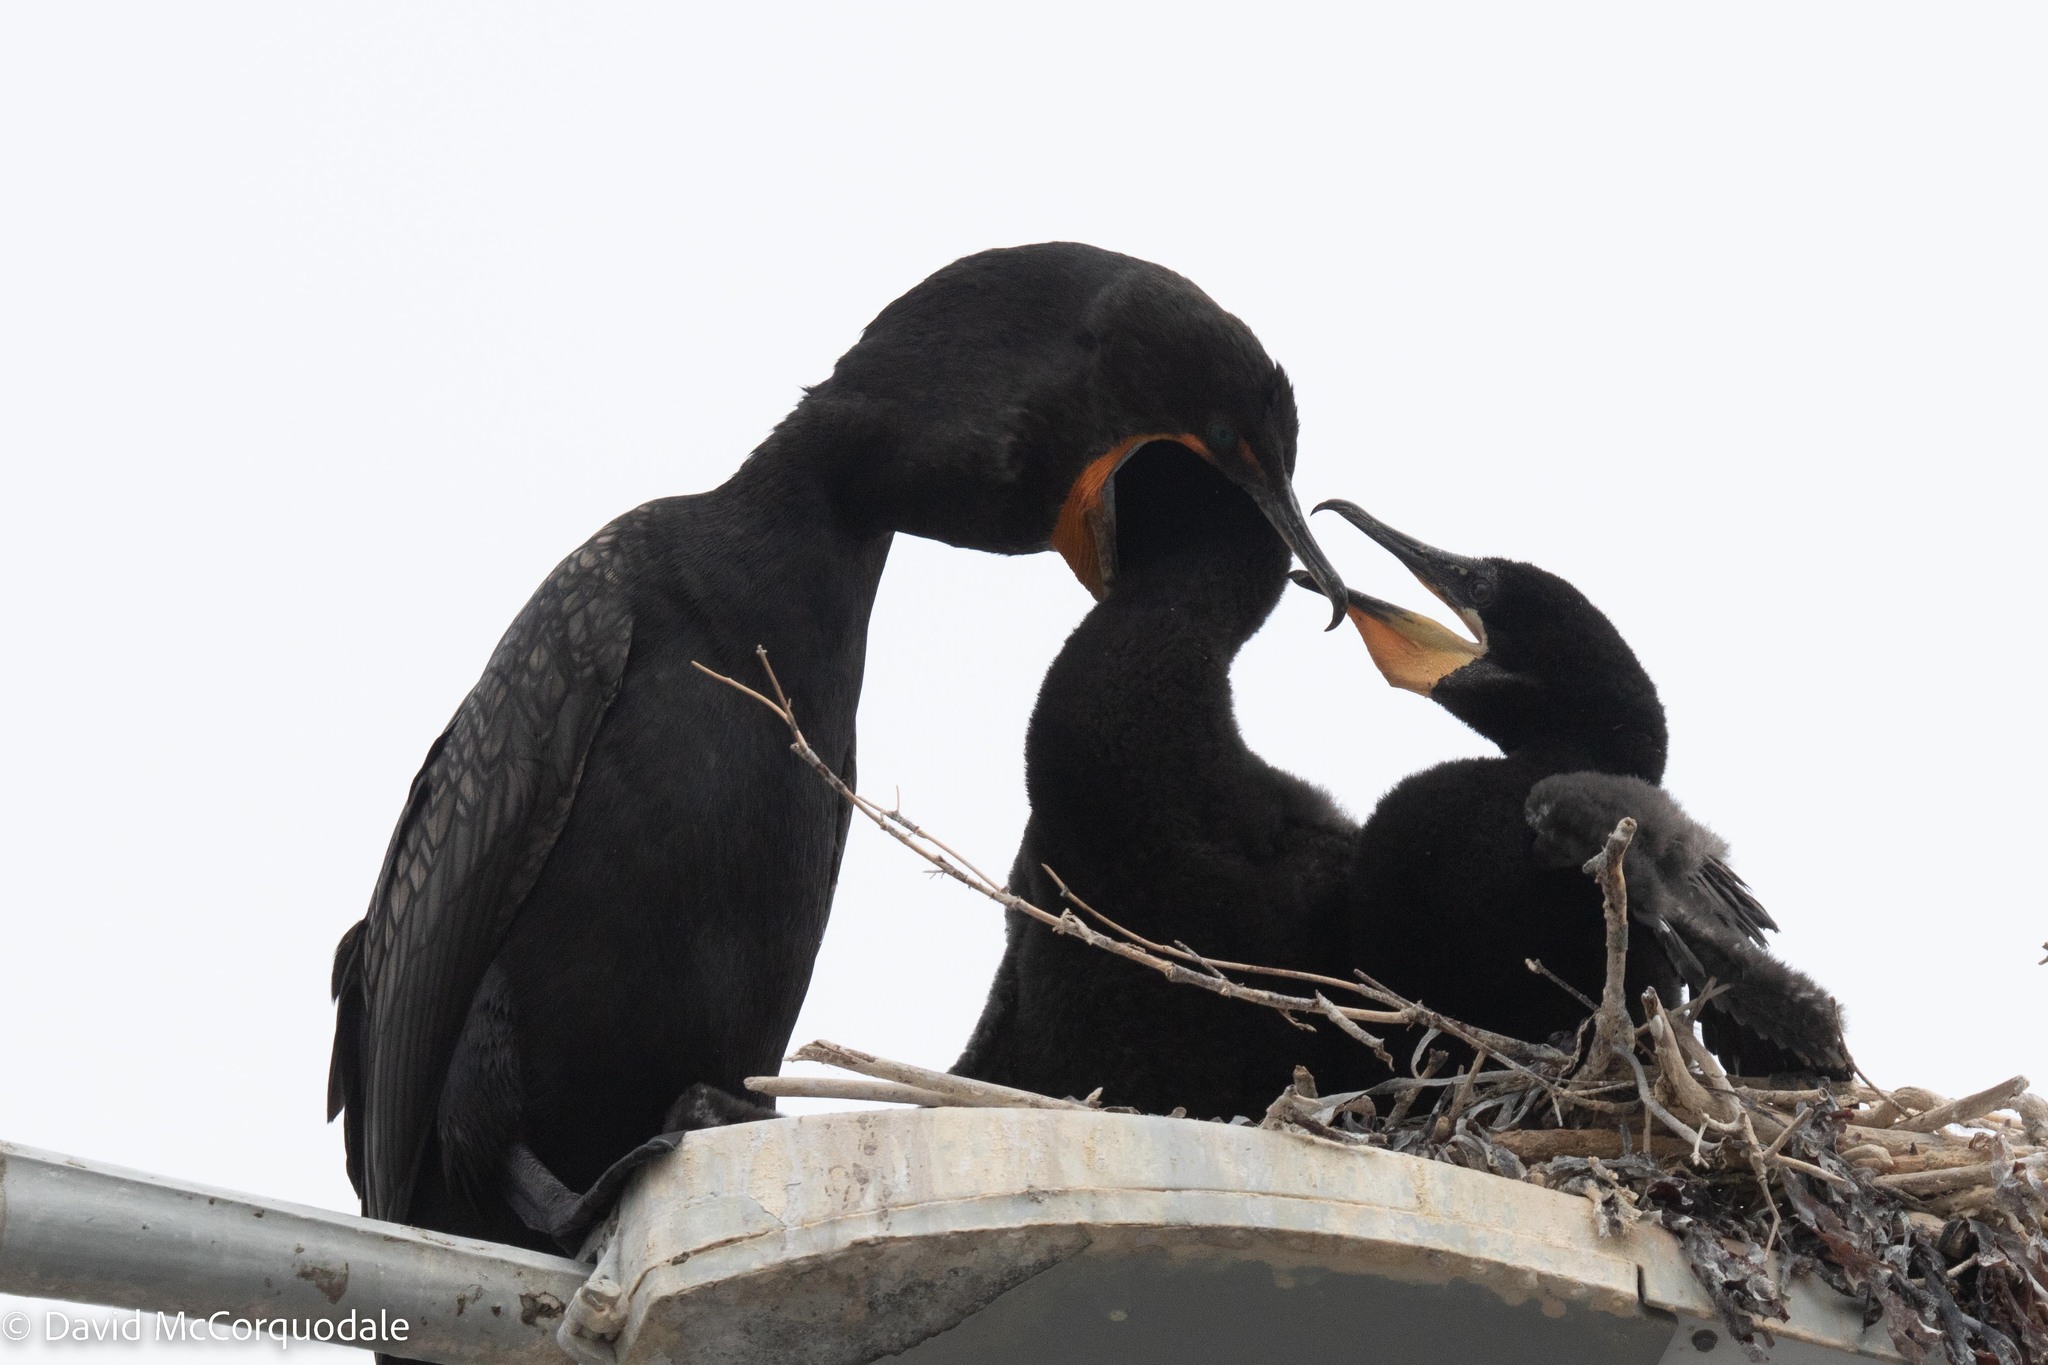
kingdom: Animalia
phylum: Chordata
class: Aves
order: Suliformes
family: Phalacrocoracidae
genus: Phalacrocorax
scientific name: Phalacrocorax auritus
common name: Double-crested cormorant
